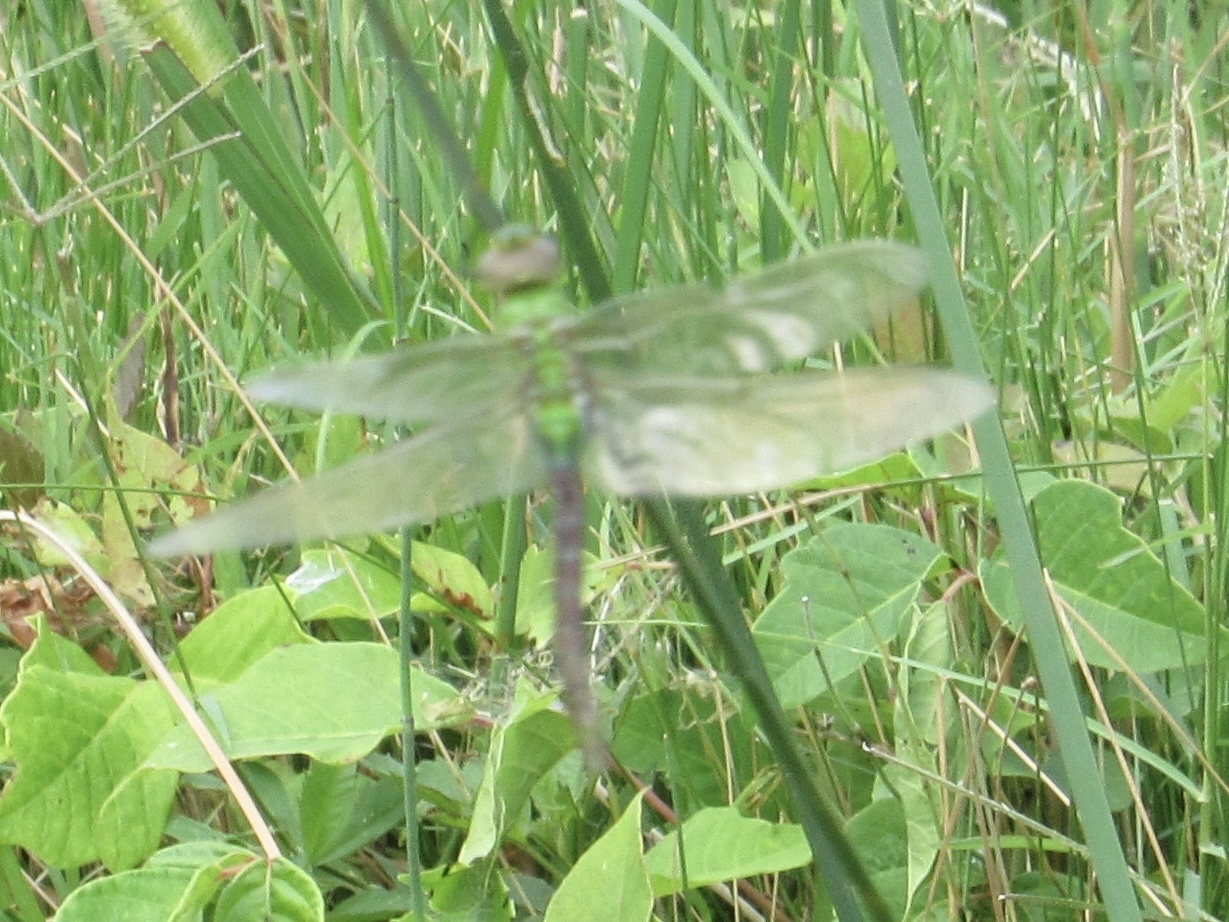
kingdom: Animalia
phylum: Arthropoda
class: Insecta
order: Odonata
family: Aeshnidae
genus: Anax
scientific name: Anax junius
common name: Common green darner
